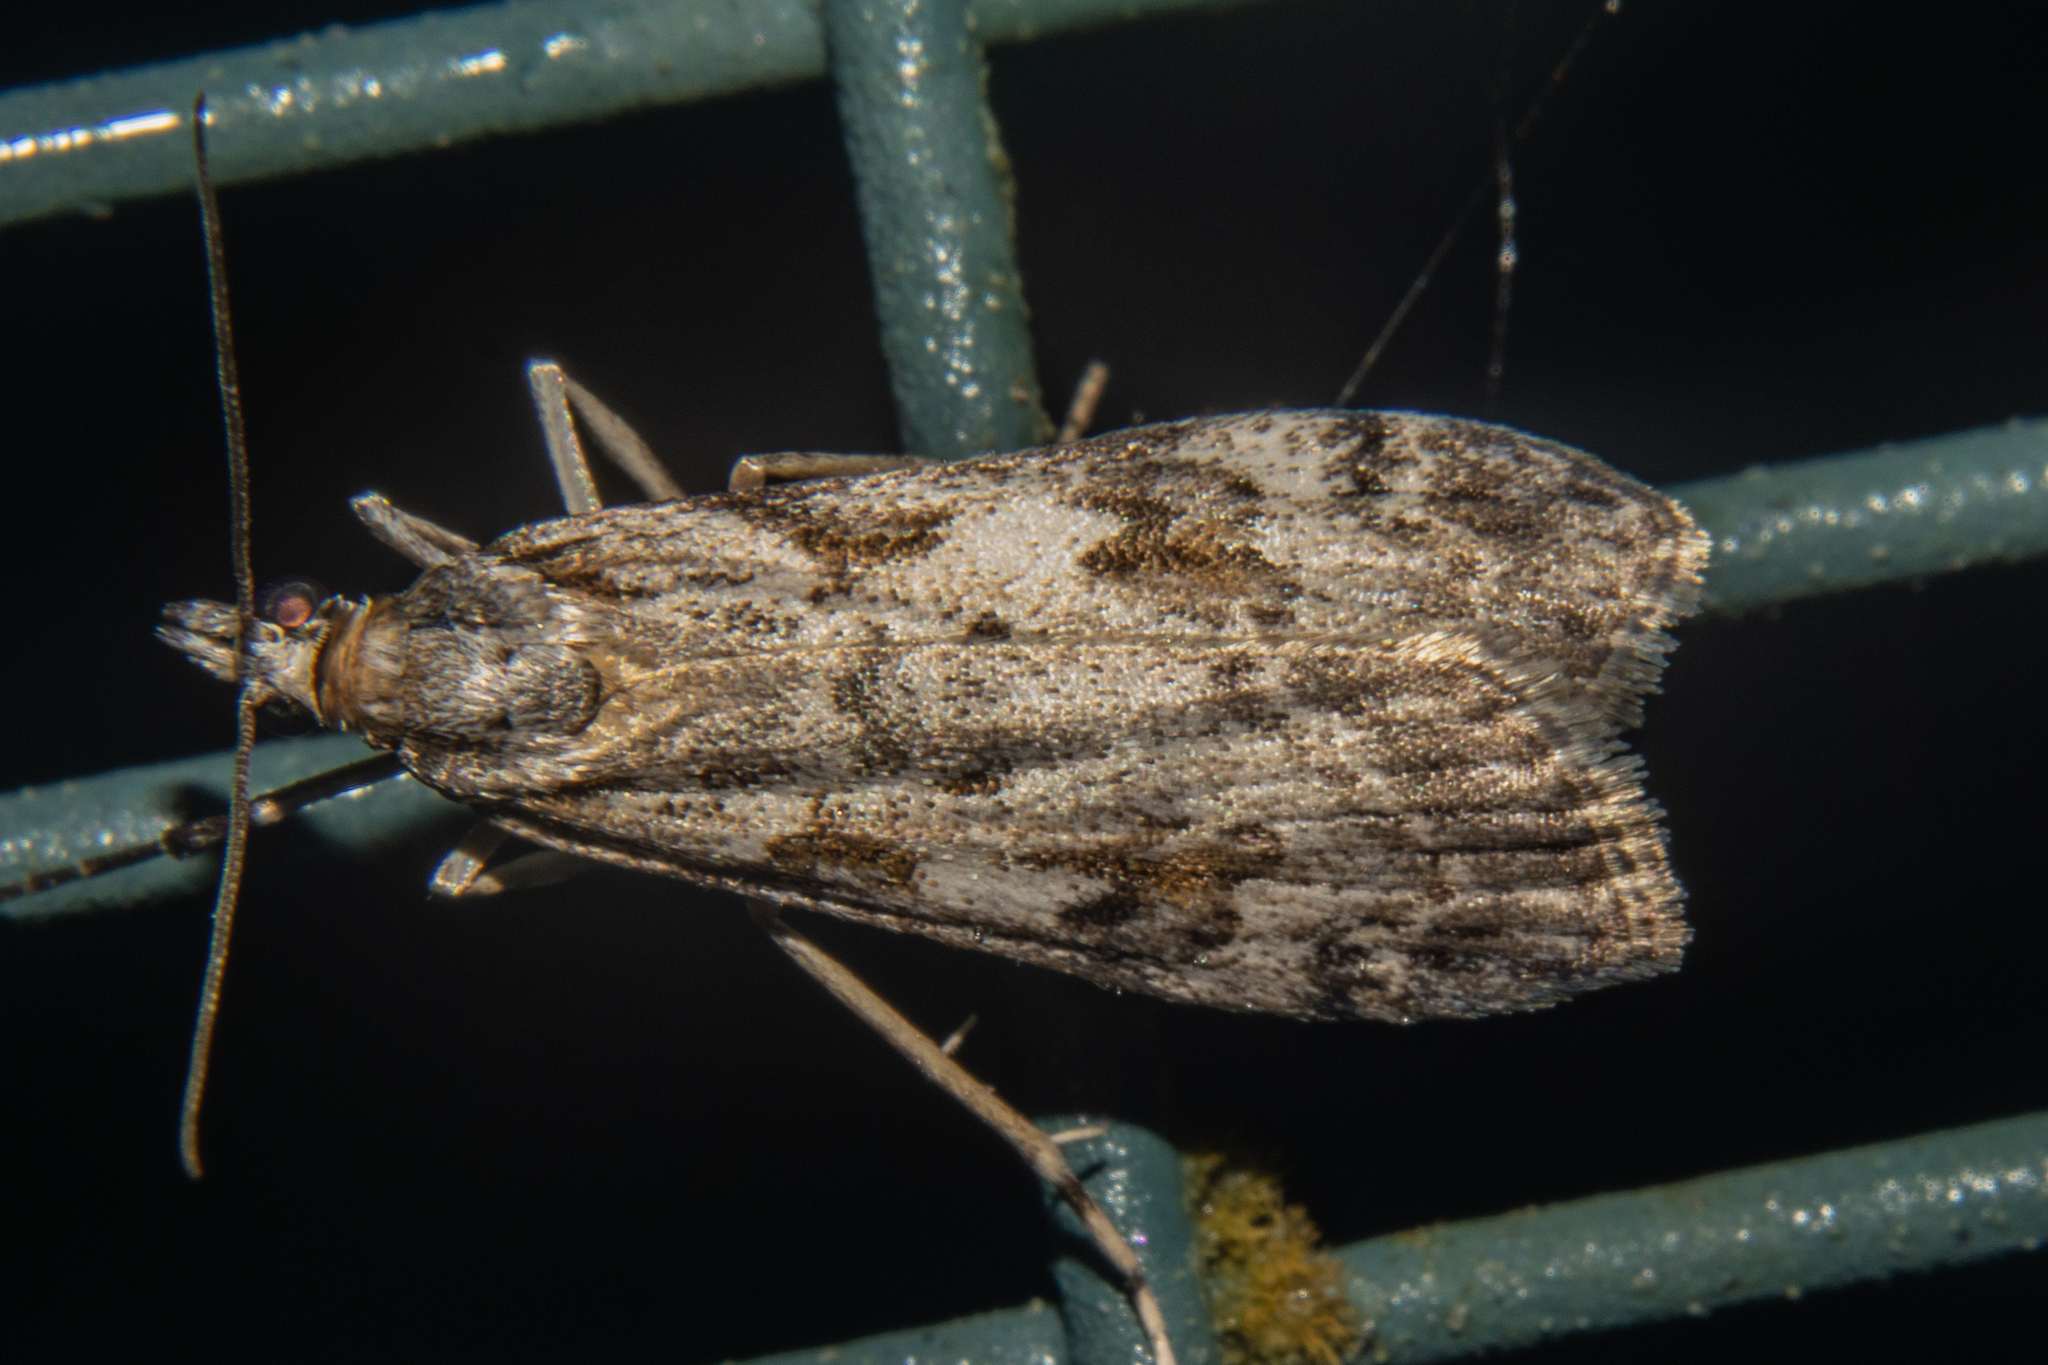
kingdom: Animalia
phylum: Arthropoda
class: Insecta
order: Lepidoptera
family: Crambidae
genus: Scoparia
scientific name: Scoparia petrina
